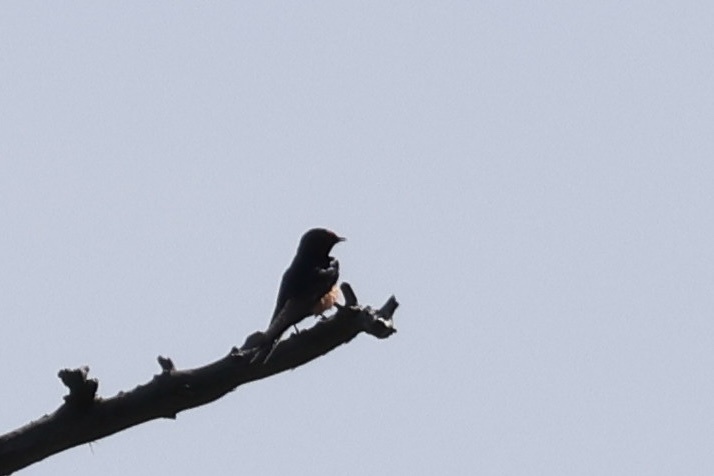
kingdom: Animalia
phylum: Chordata
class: Aves
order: Passeriformes
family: Hirundinidae
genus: Hirundo
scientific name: Hirundo rustica
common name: Barn swallow
